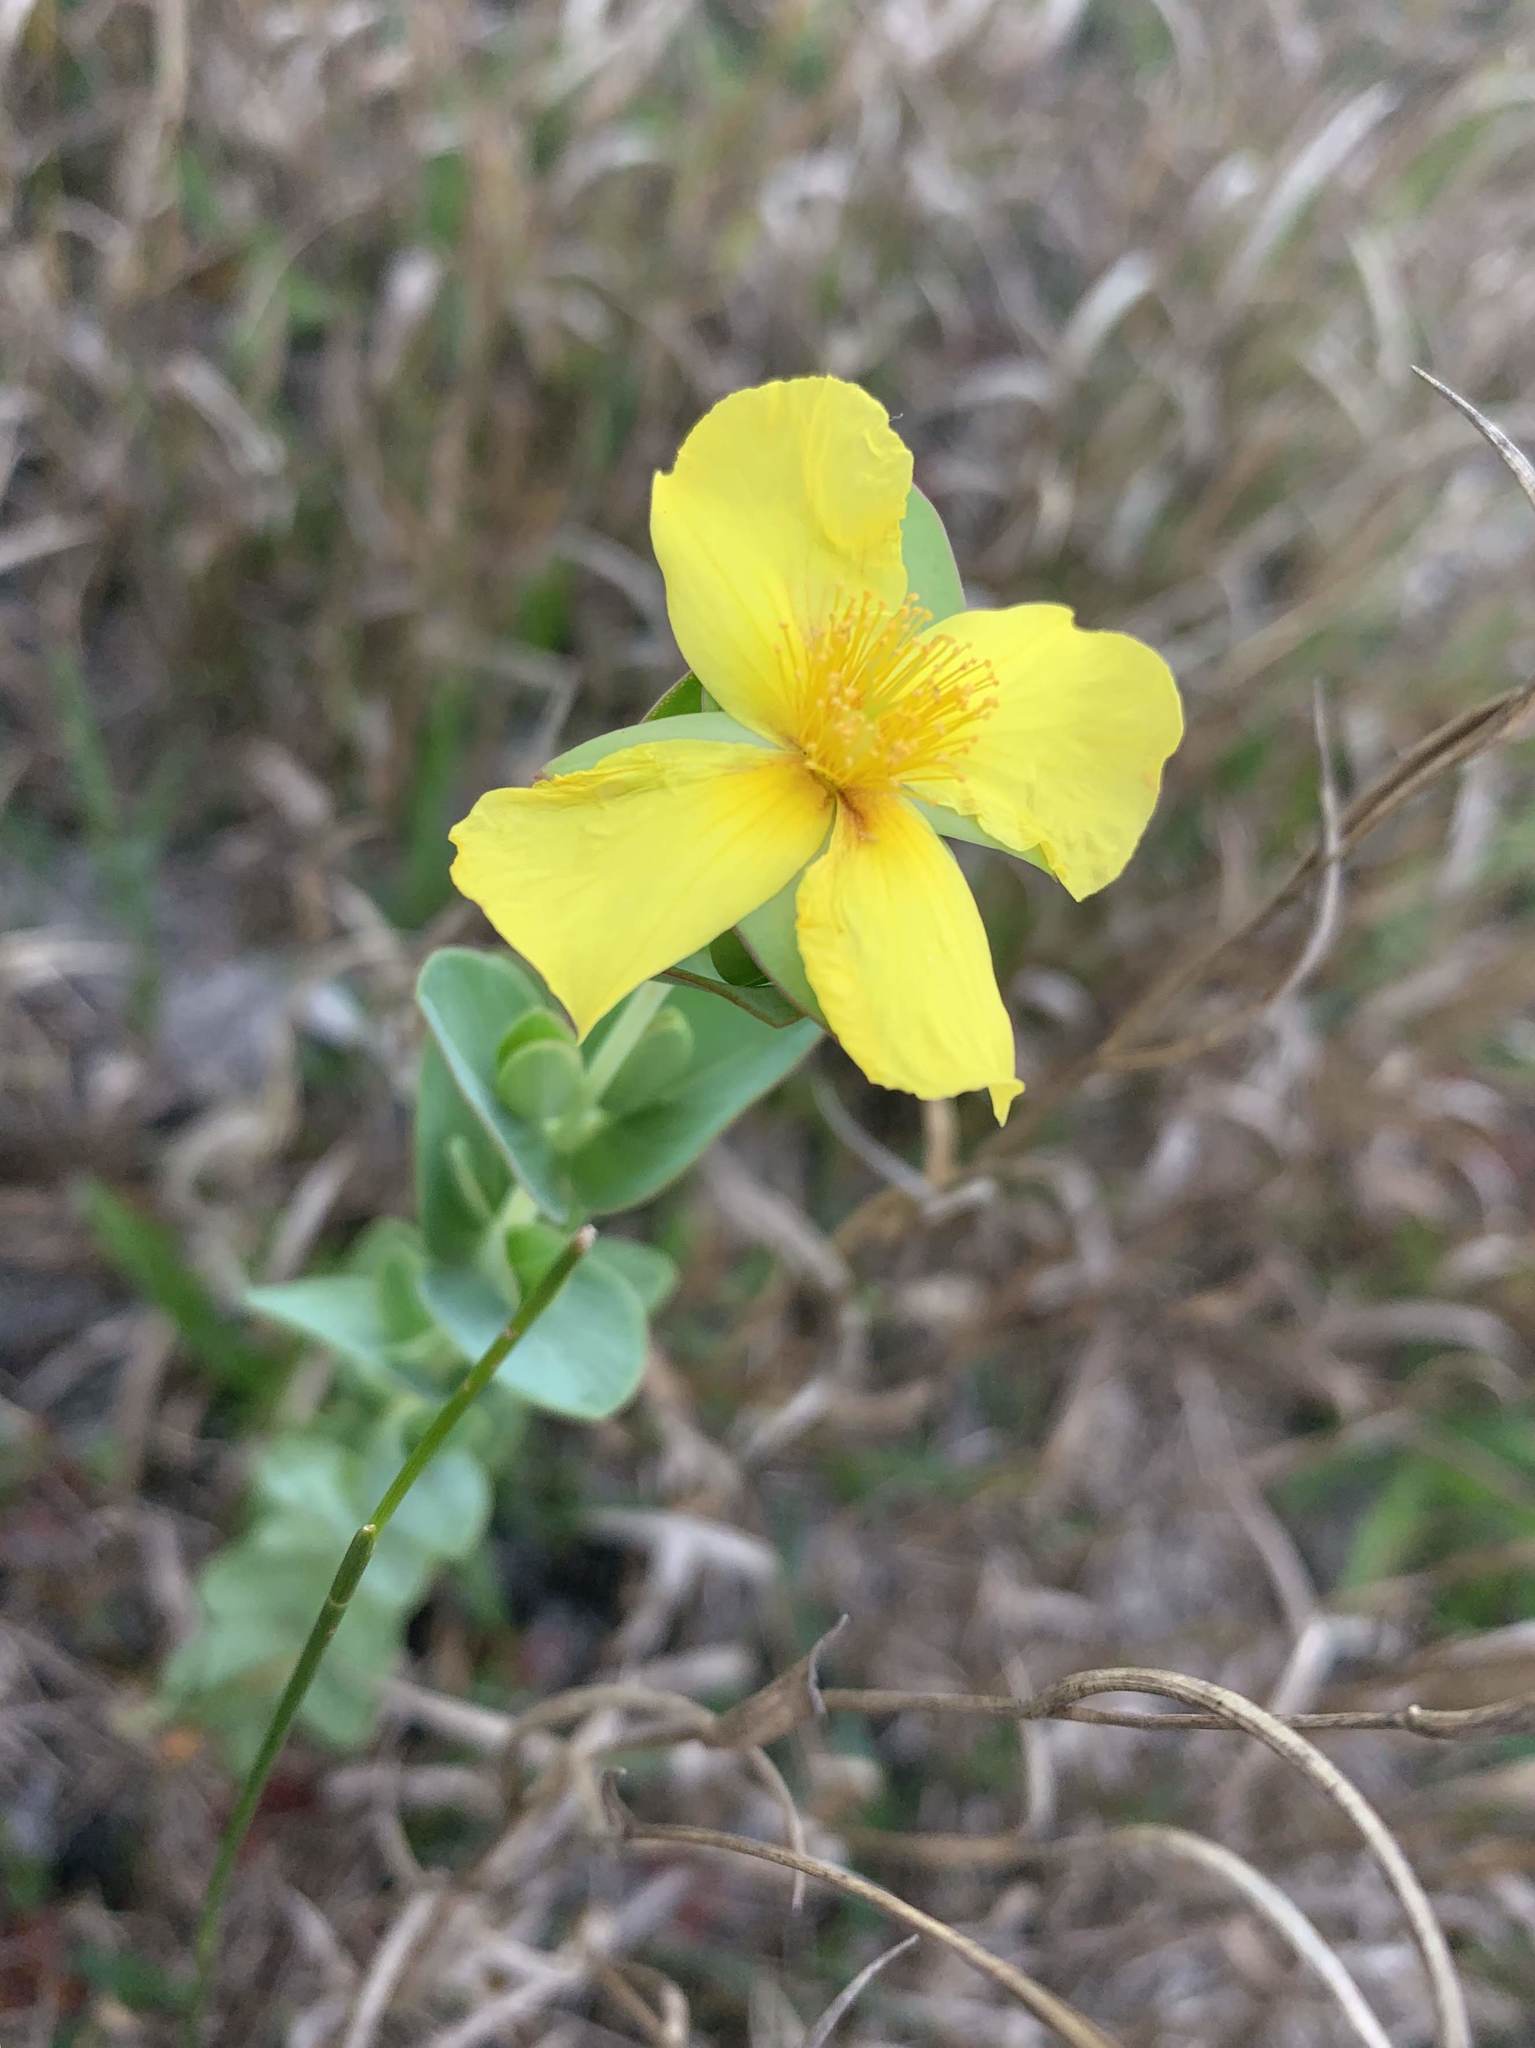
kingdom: Plantae
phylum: Tracheophyta
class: Magnoliopsida
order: Malpighiales
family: Hypericaceae
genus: Hypericum
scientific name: Hypericum tetrapetalum
